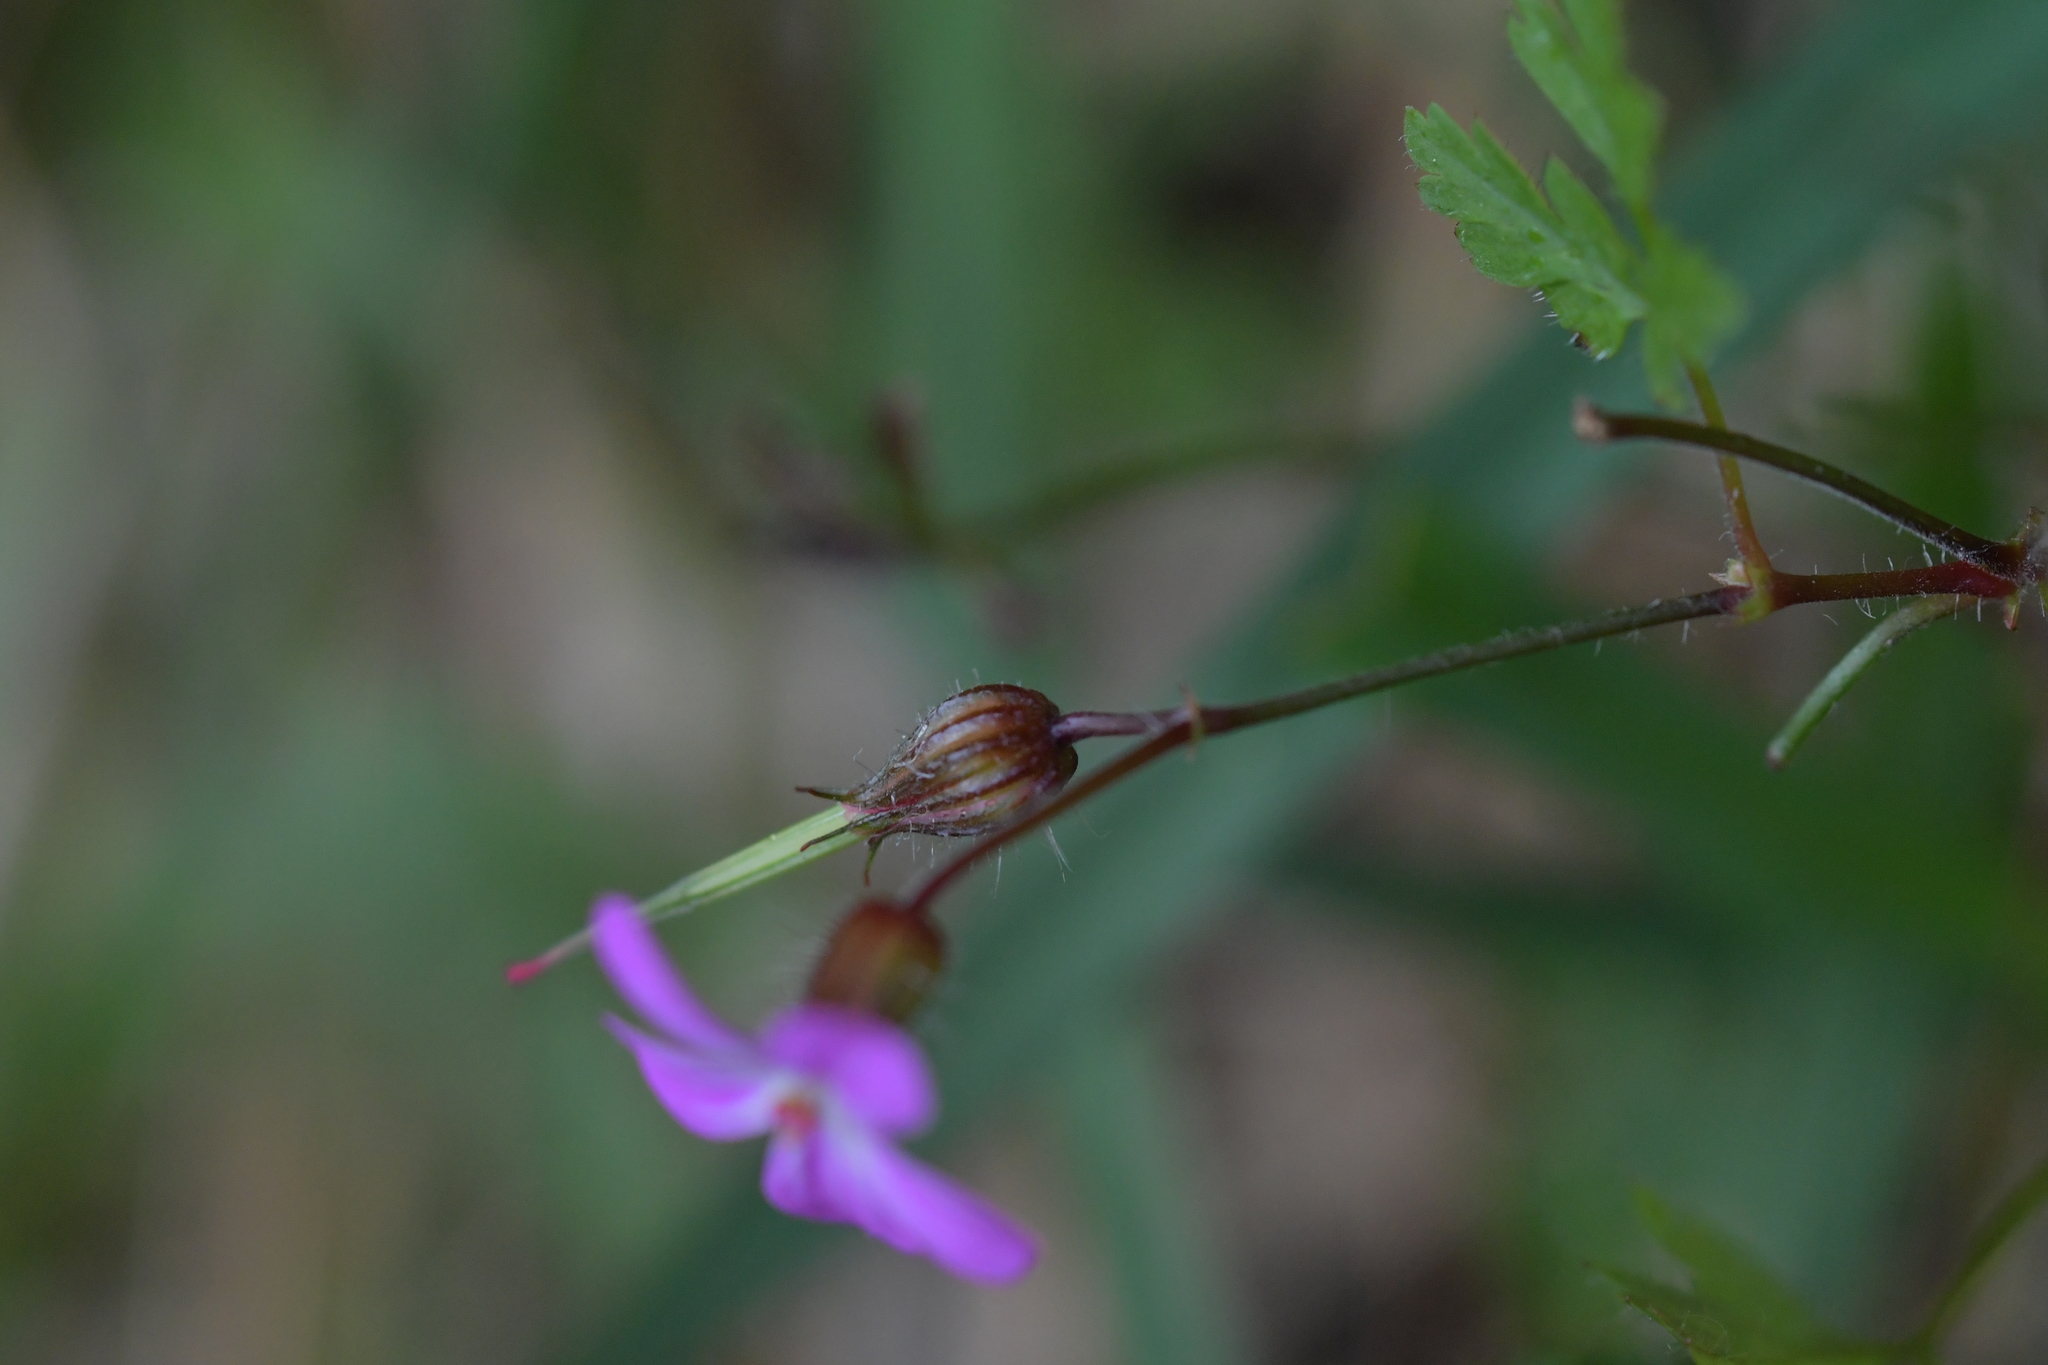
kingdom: Plantae
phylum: Tracheophyta
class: Magnoliopsida
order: Geraniales
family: Geraniaceae
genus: Geranium
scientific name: Geranium robertianum
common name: Herb-robert
